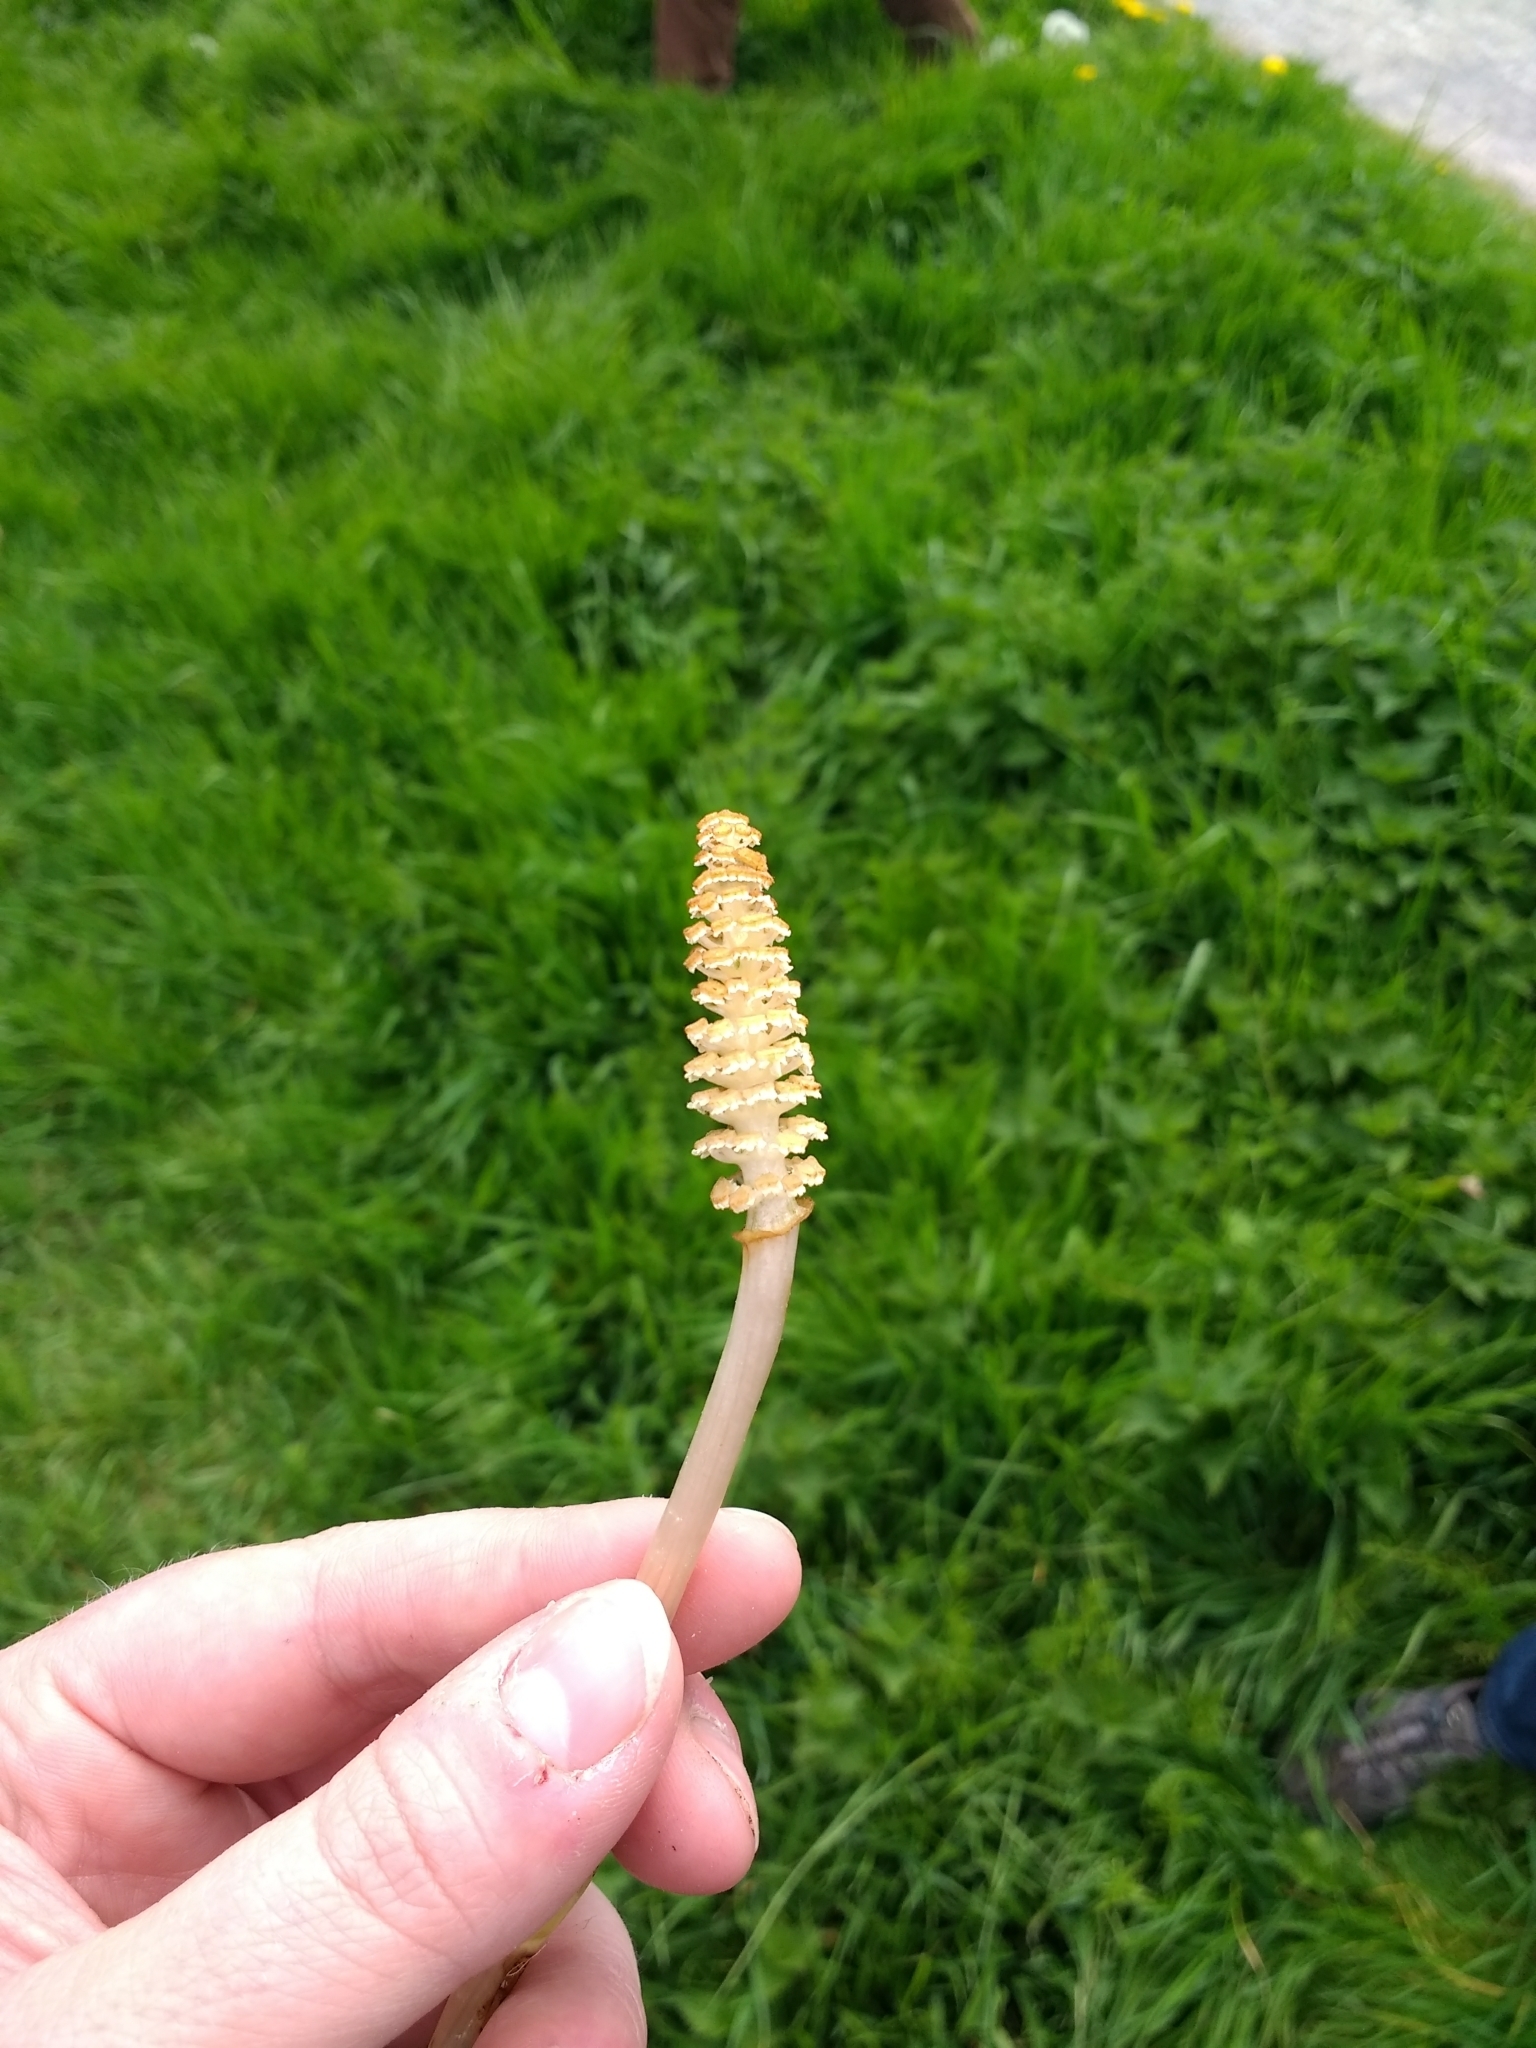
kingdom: Plantae
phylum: Tracheophyta
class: Polypodiopsida
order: Equisetales
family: Equisetaceae
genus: Equisetum
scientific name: Equisetum arvense
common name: Field horsetail
